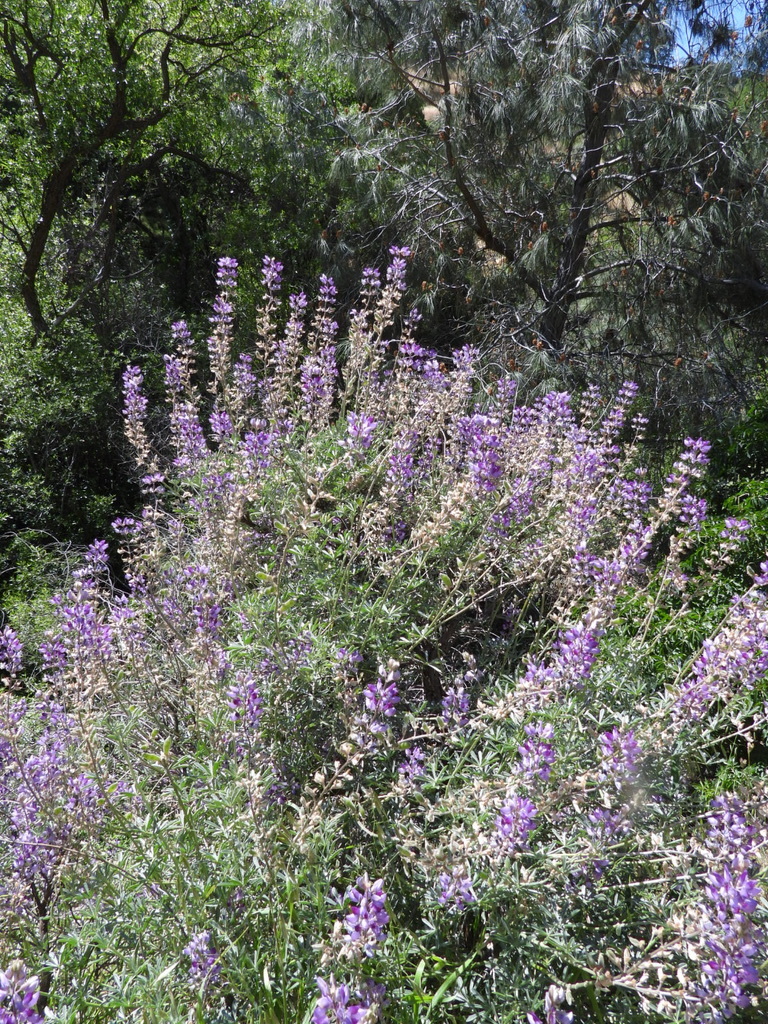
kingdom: Plantae
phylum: Tracheophyta
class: Magnoliopsida
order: Fabales
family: Fabaceae
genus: Lupinus
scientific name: Lupinus albifrons
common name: Foothill lupine
